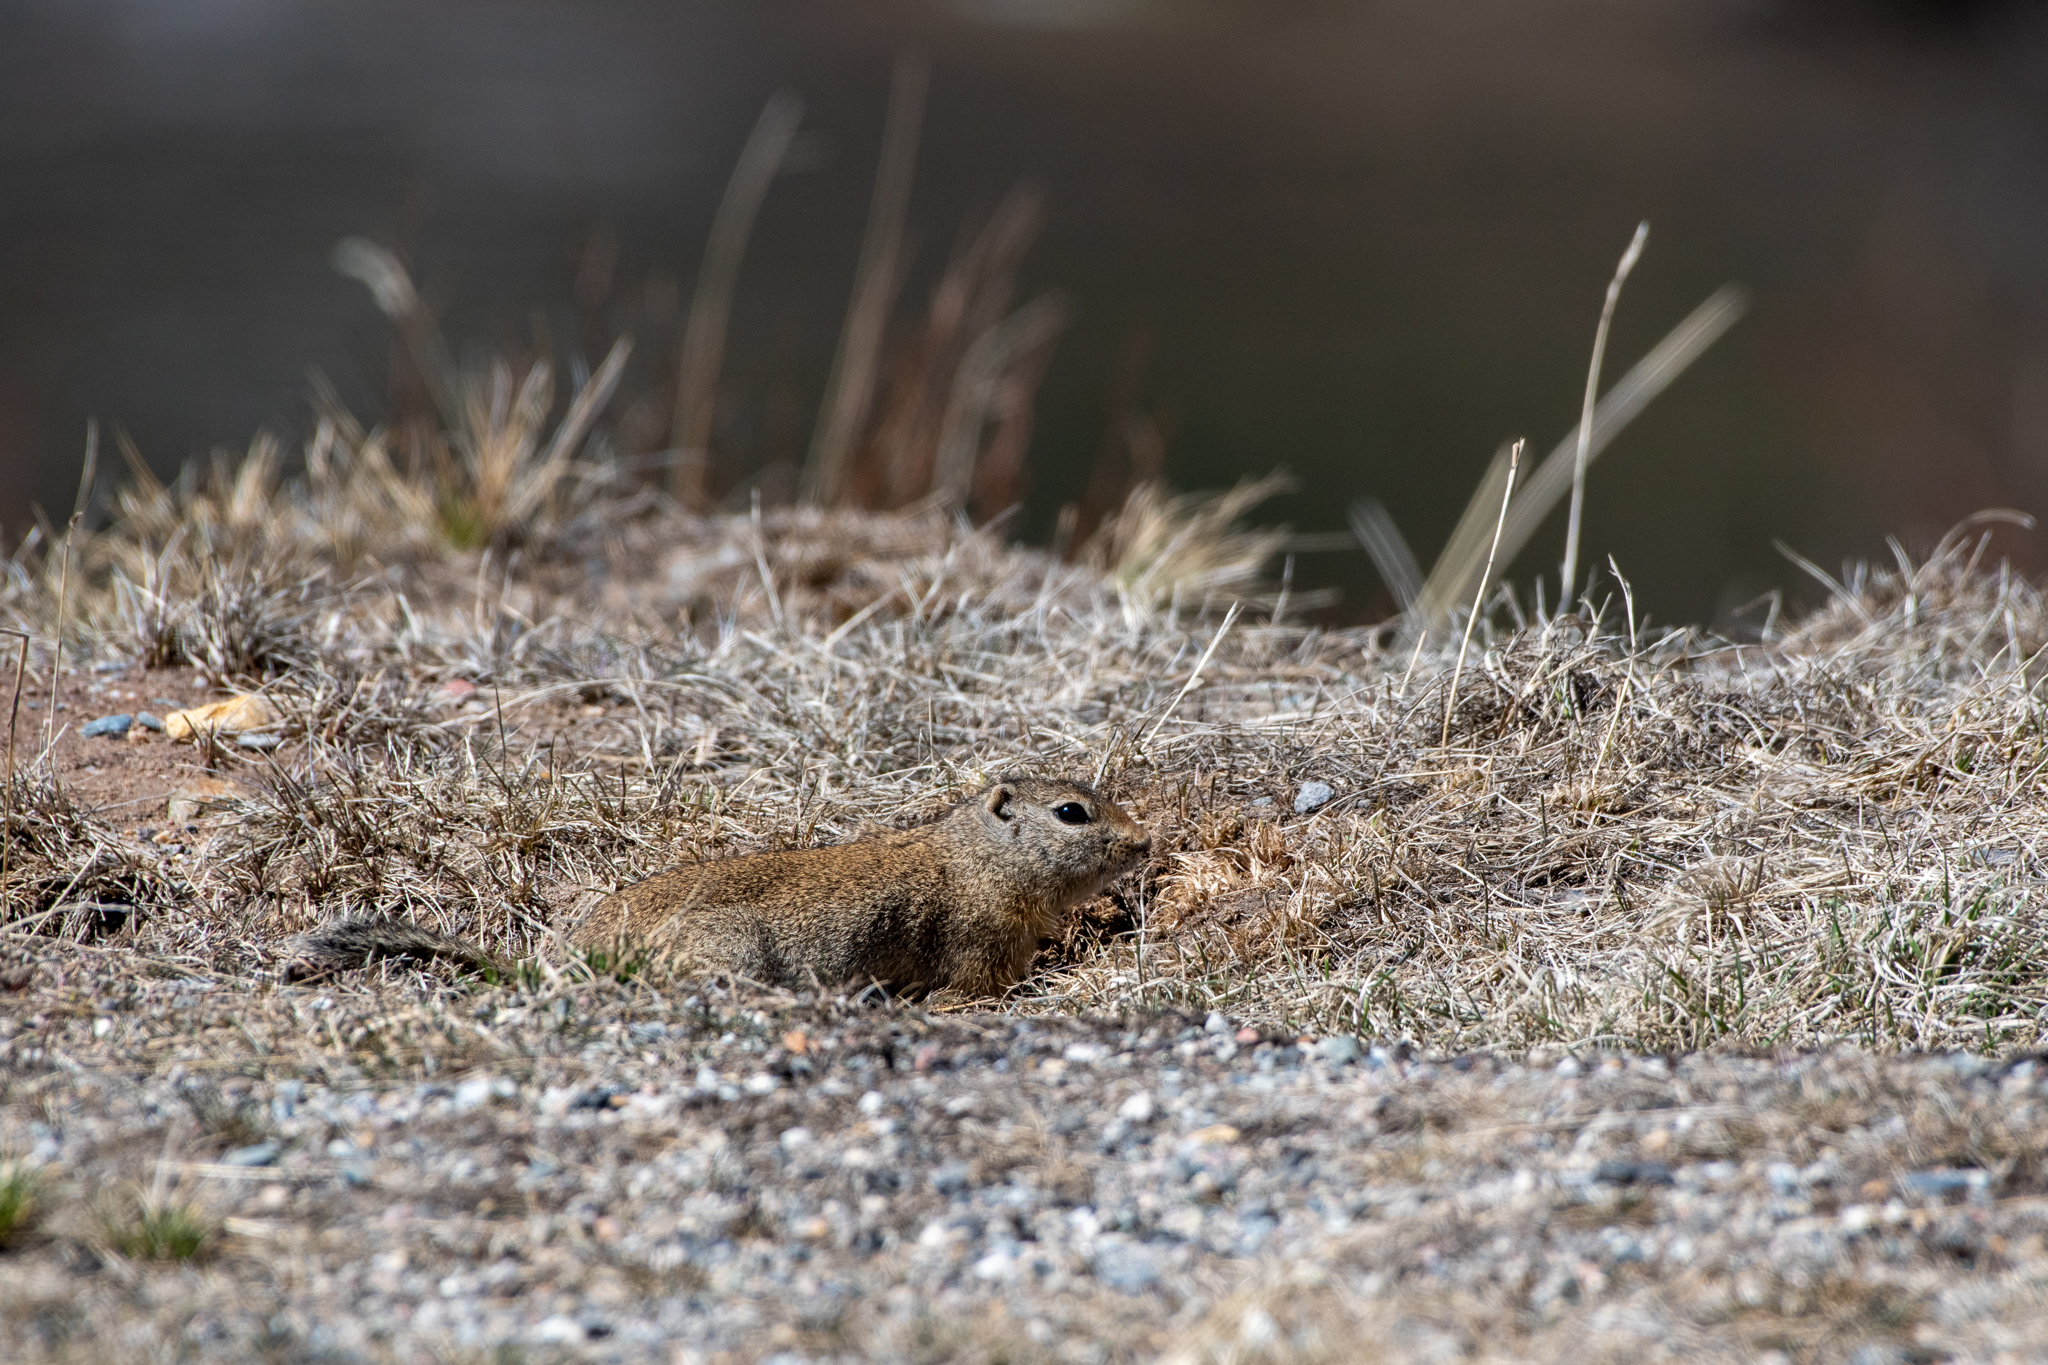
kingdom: Animalia
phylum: Chordata
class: Mammalia
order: Rodentia
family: Sciuridae
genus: Urocitellus
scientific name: Urocitellus elegans
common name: Wyoming ground squirrel
